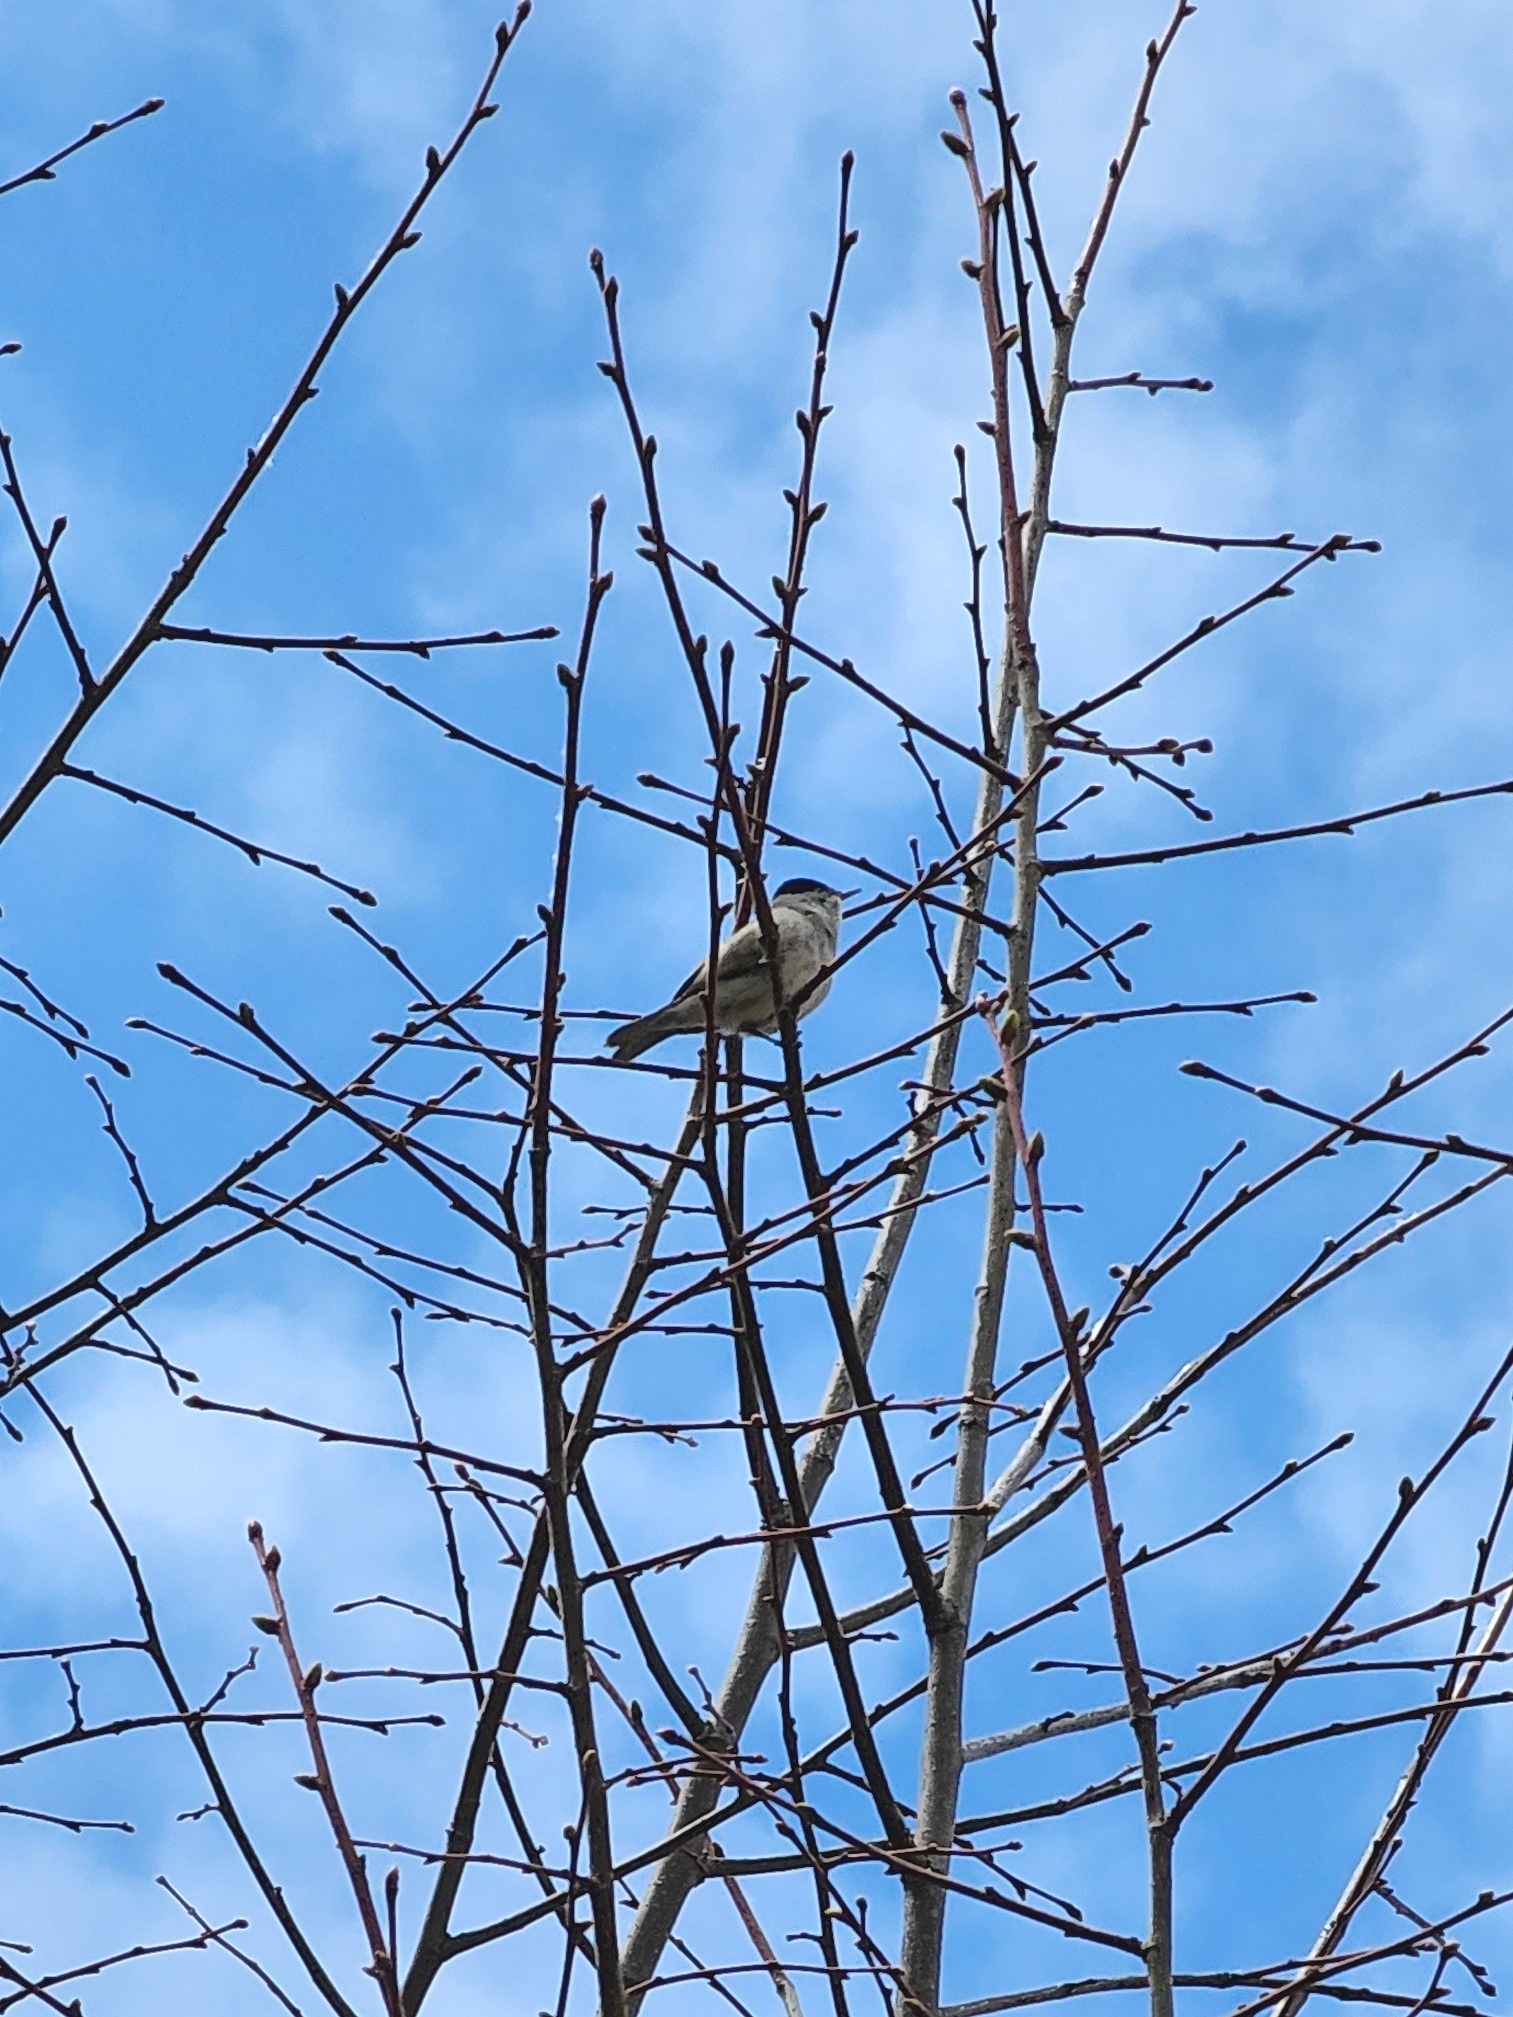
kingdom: Animalia
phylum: Chordata
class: Aves
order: Passeriformes
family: Sylviidae
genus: Sylvia
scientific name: Sylvia atricapilla
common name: Eurasian blackcap
